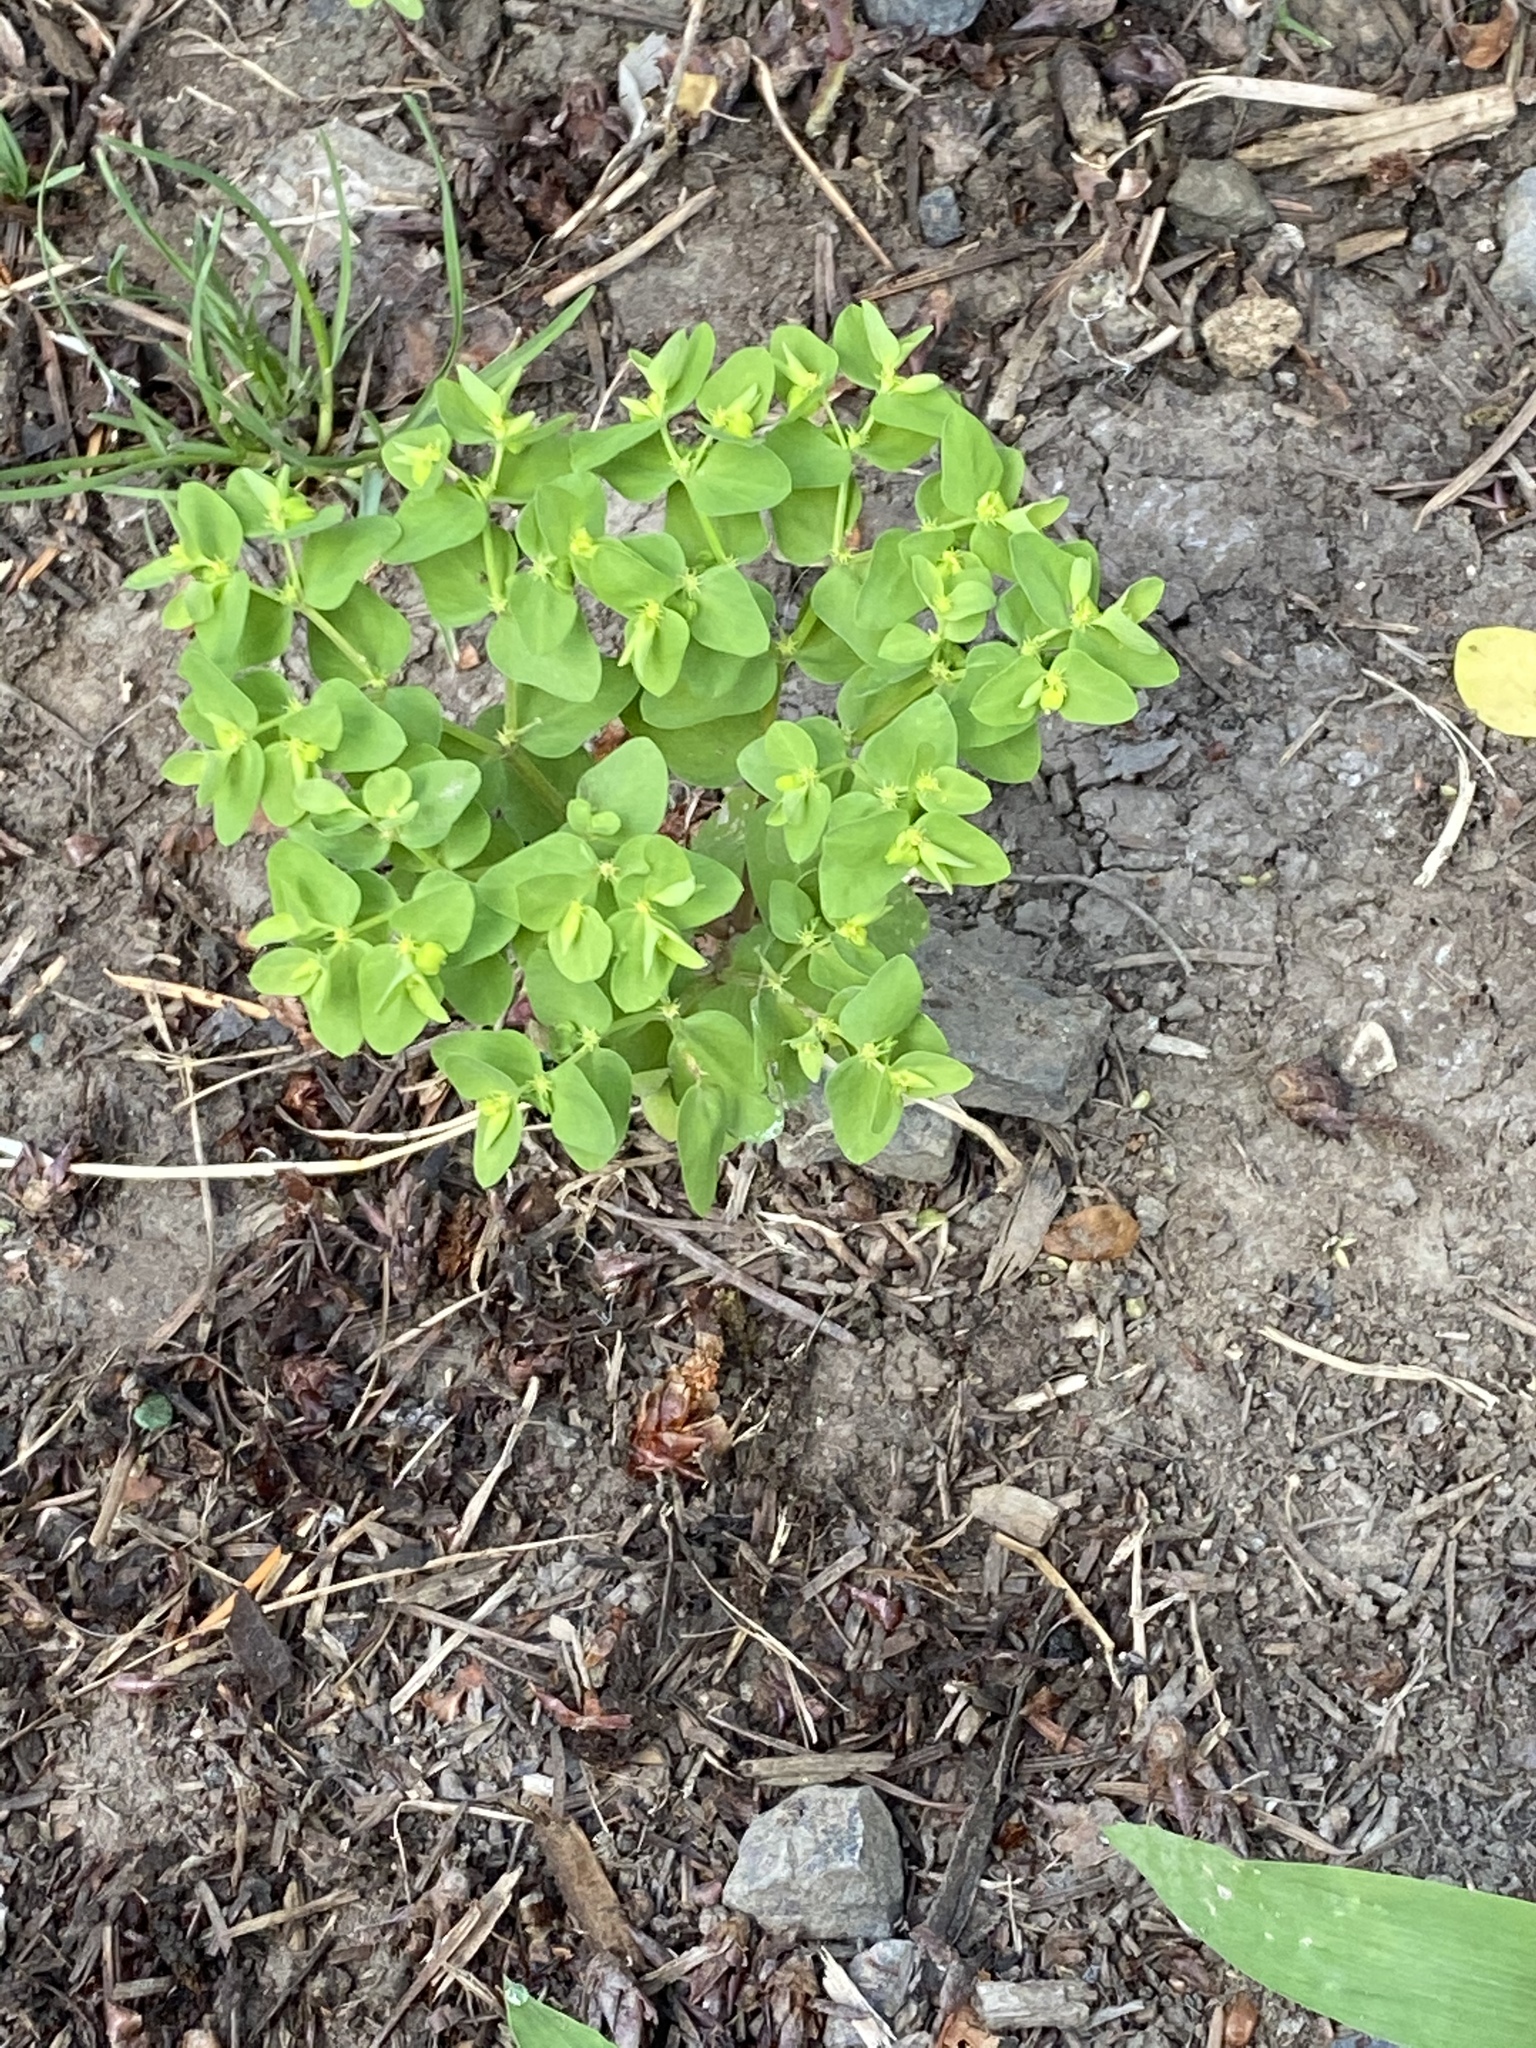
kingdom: Plantae
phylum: Tracheophyta
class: Magnoliopsida
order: Malpighiales
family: Euphorbiaceae
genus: Euphorbia
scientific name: Euphorbia peplus
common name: Petty spurge
